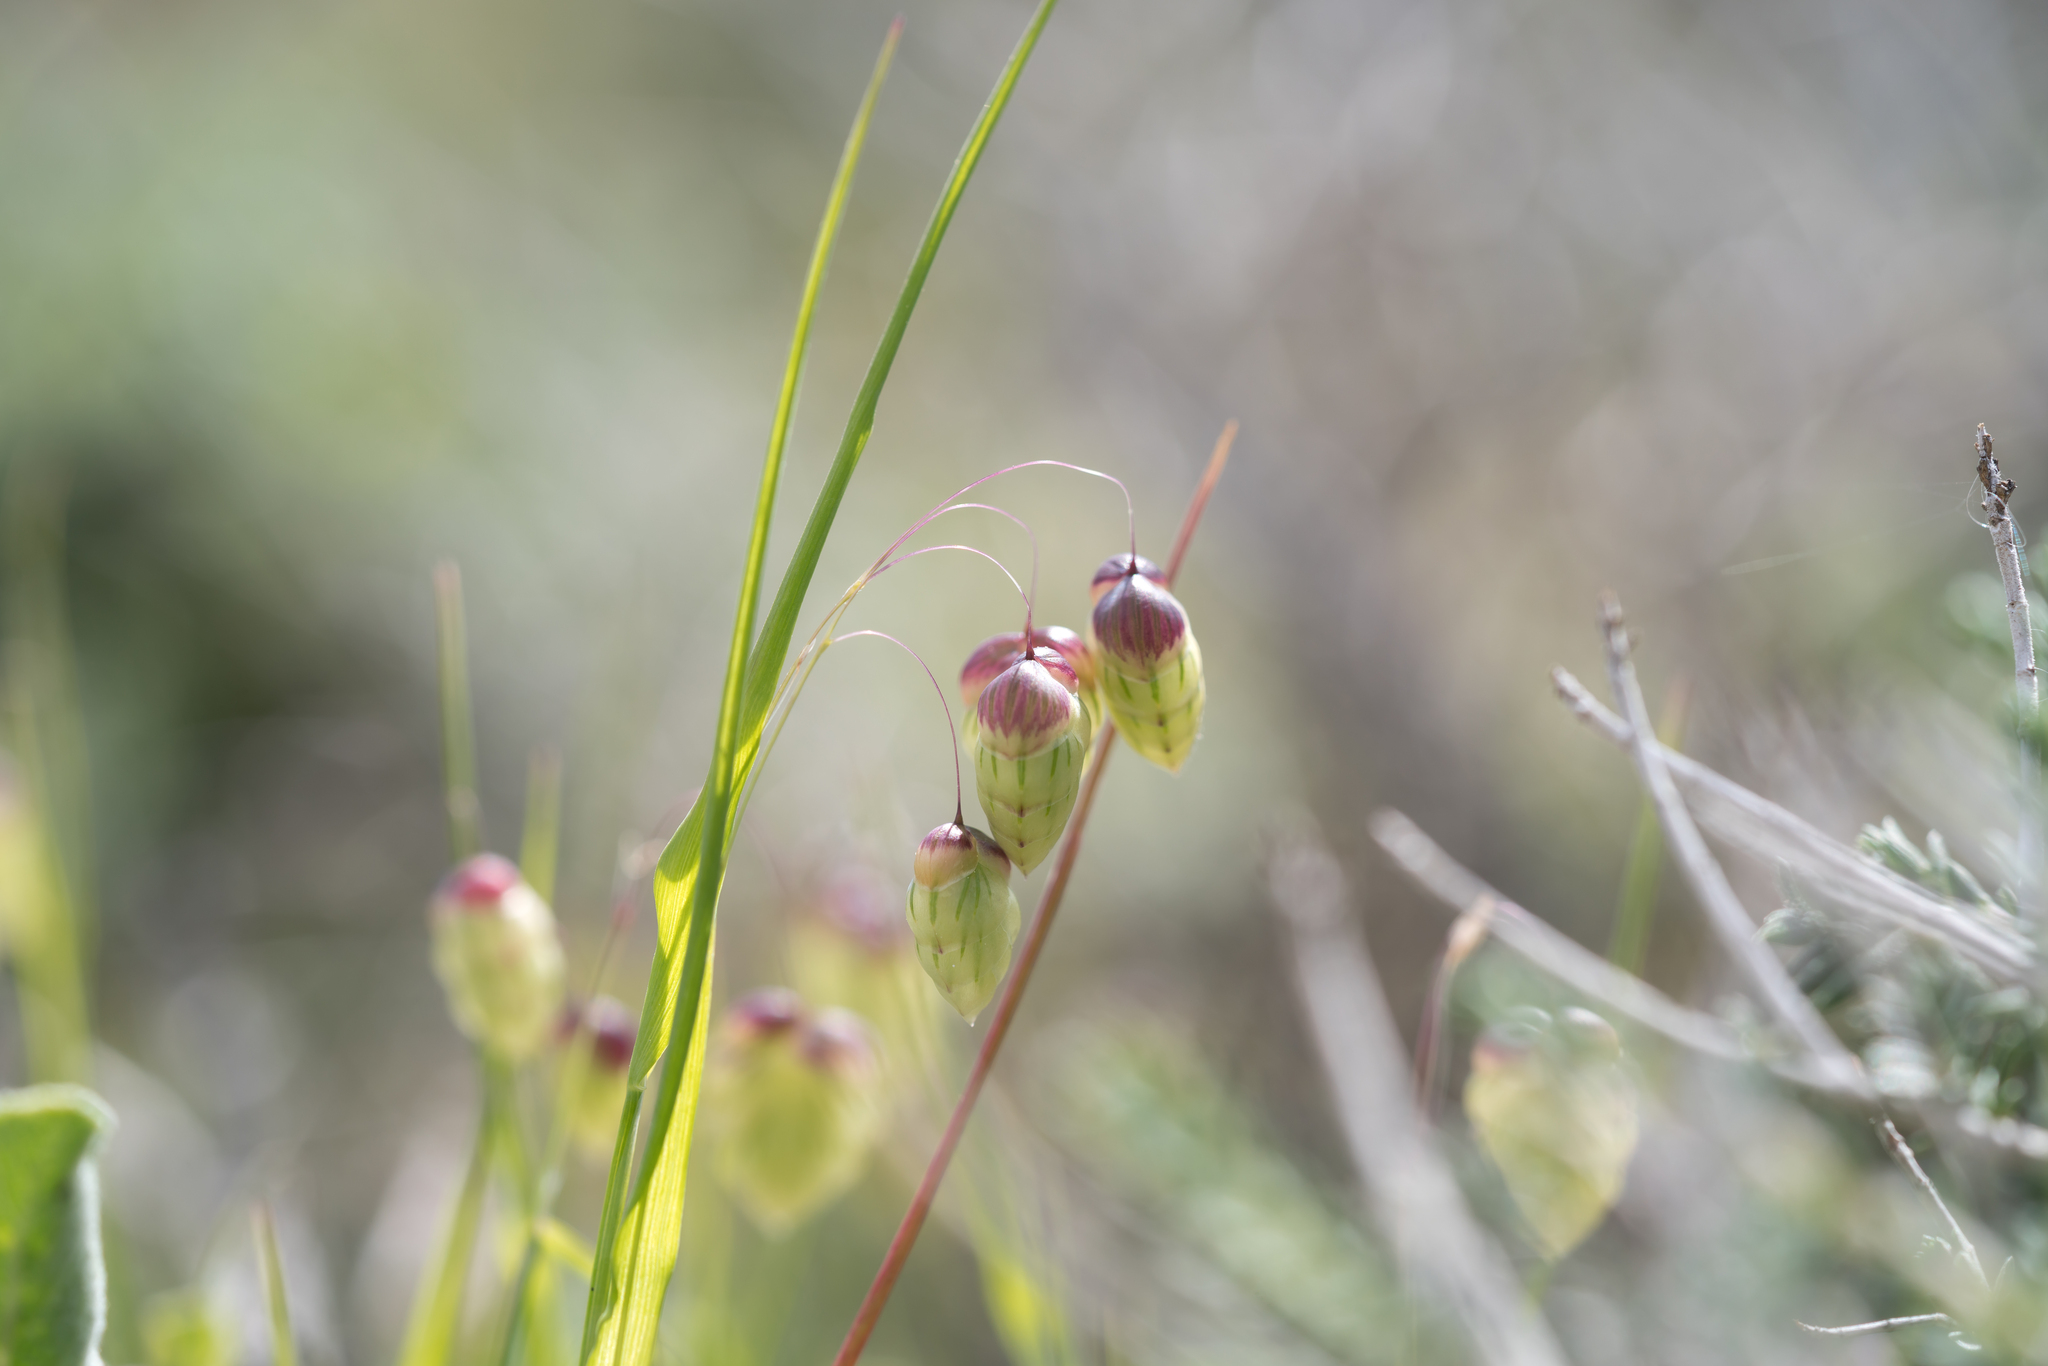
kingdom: Plantae
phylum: Tracheophyta
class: Liliopsida
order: Poales
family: Poaceae
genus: Briza
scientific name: Briza maxima
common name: Big quakinggrass
